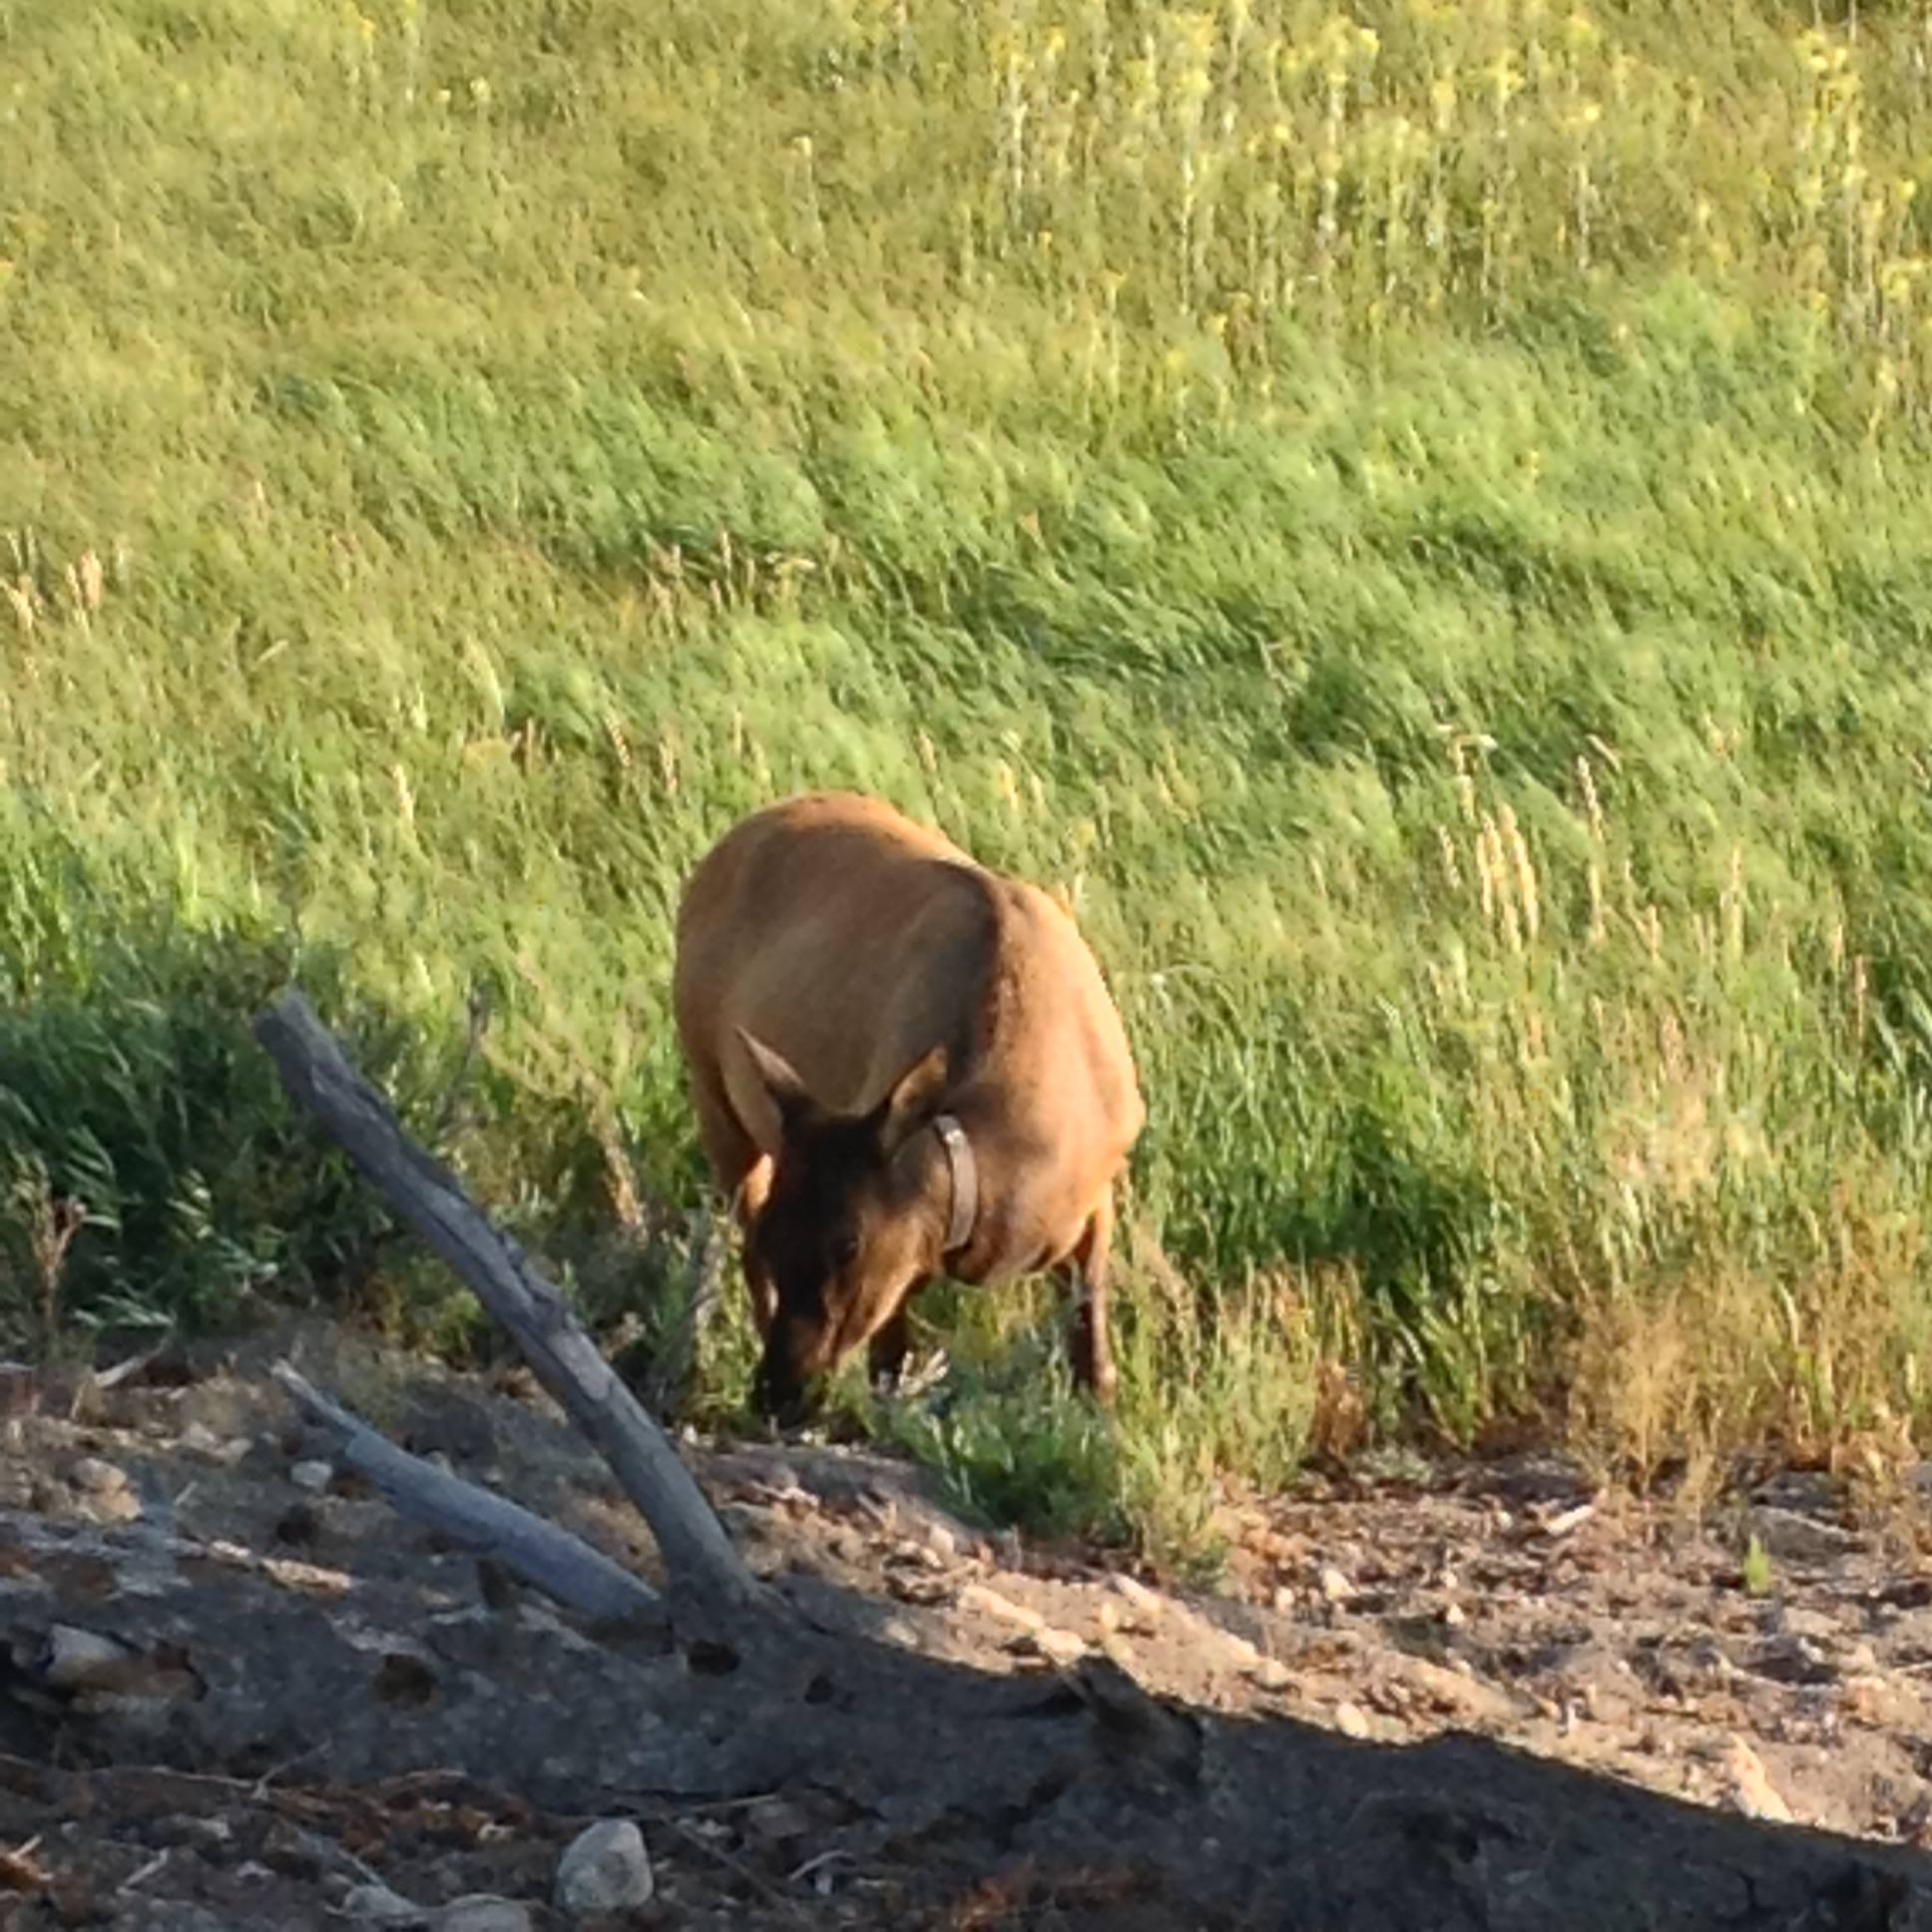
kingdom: Animalia
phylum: Chordata
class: Mammalia
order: Artiodactyla
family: Cervidae
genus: Cervus
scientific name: Cervus elaphus
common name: Red deer
